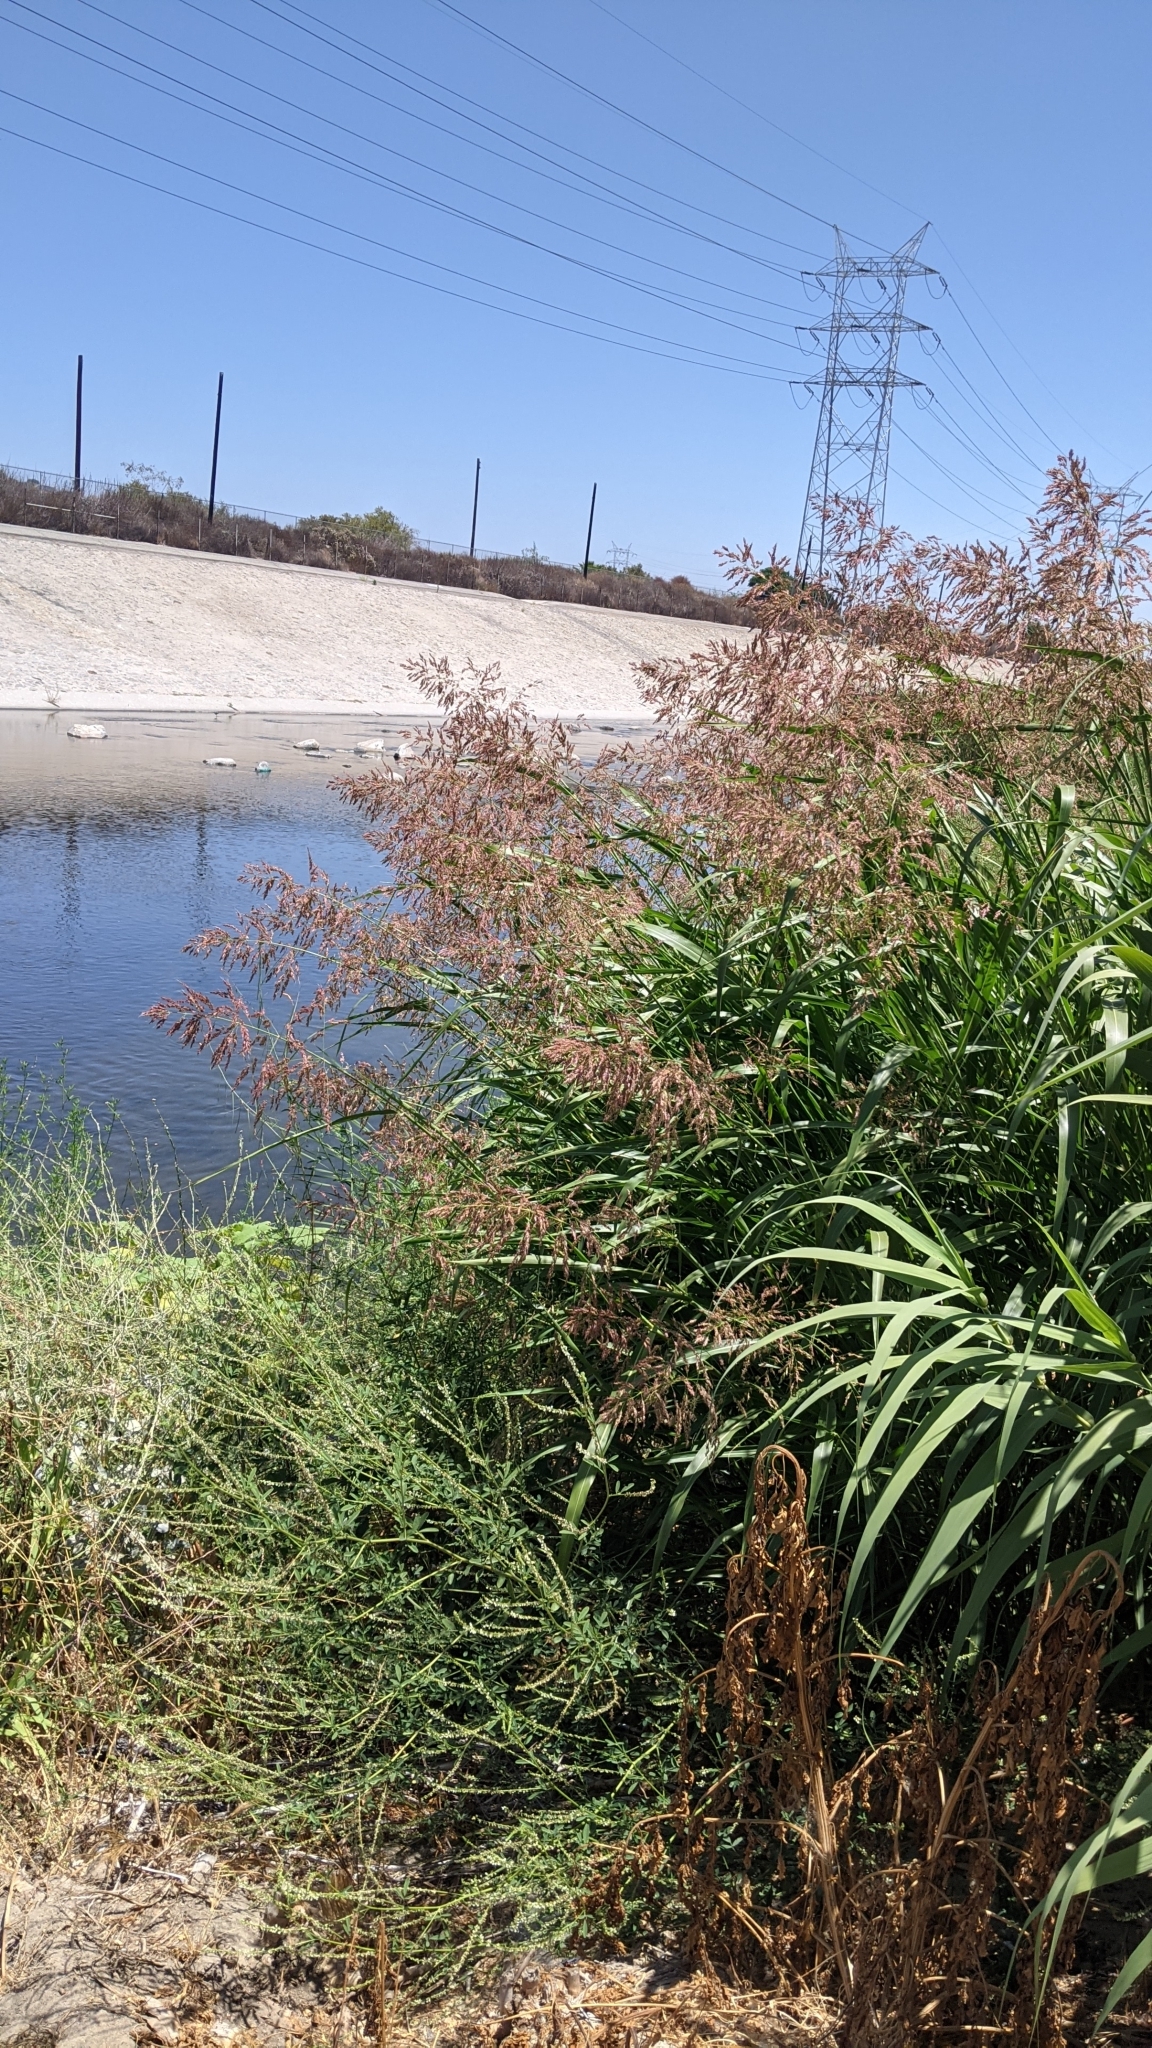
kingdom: Plantae
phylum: Tracheophyta
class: Liliopsida
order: Poales
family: Poaceae
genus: Arundo
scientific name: Arundo donax
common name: Giant reed
